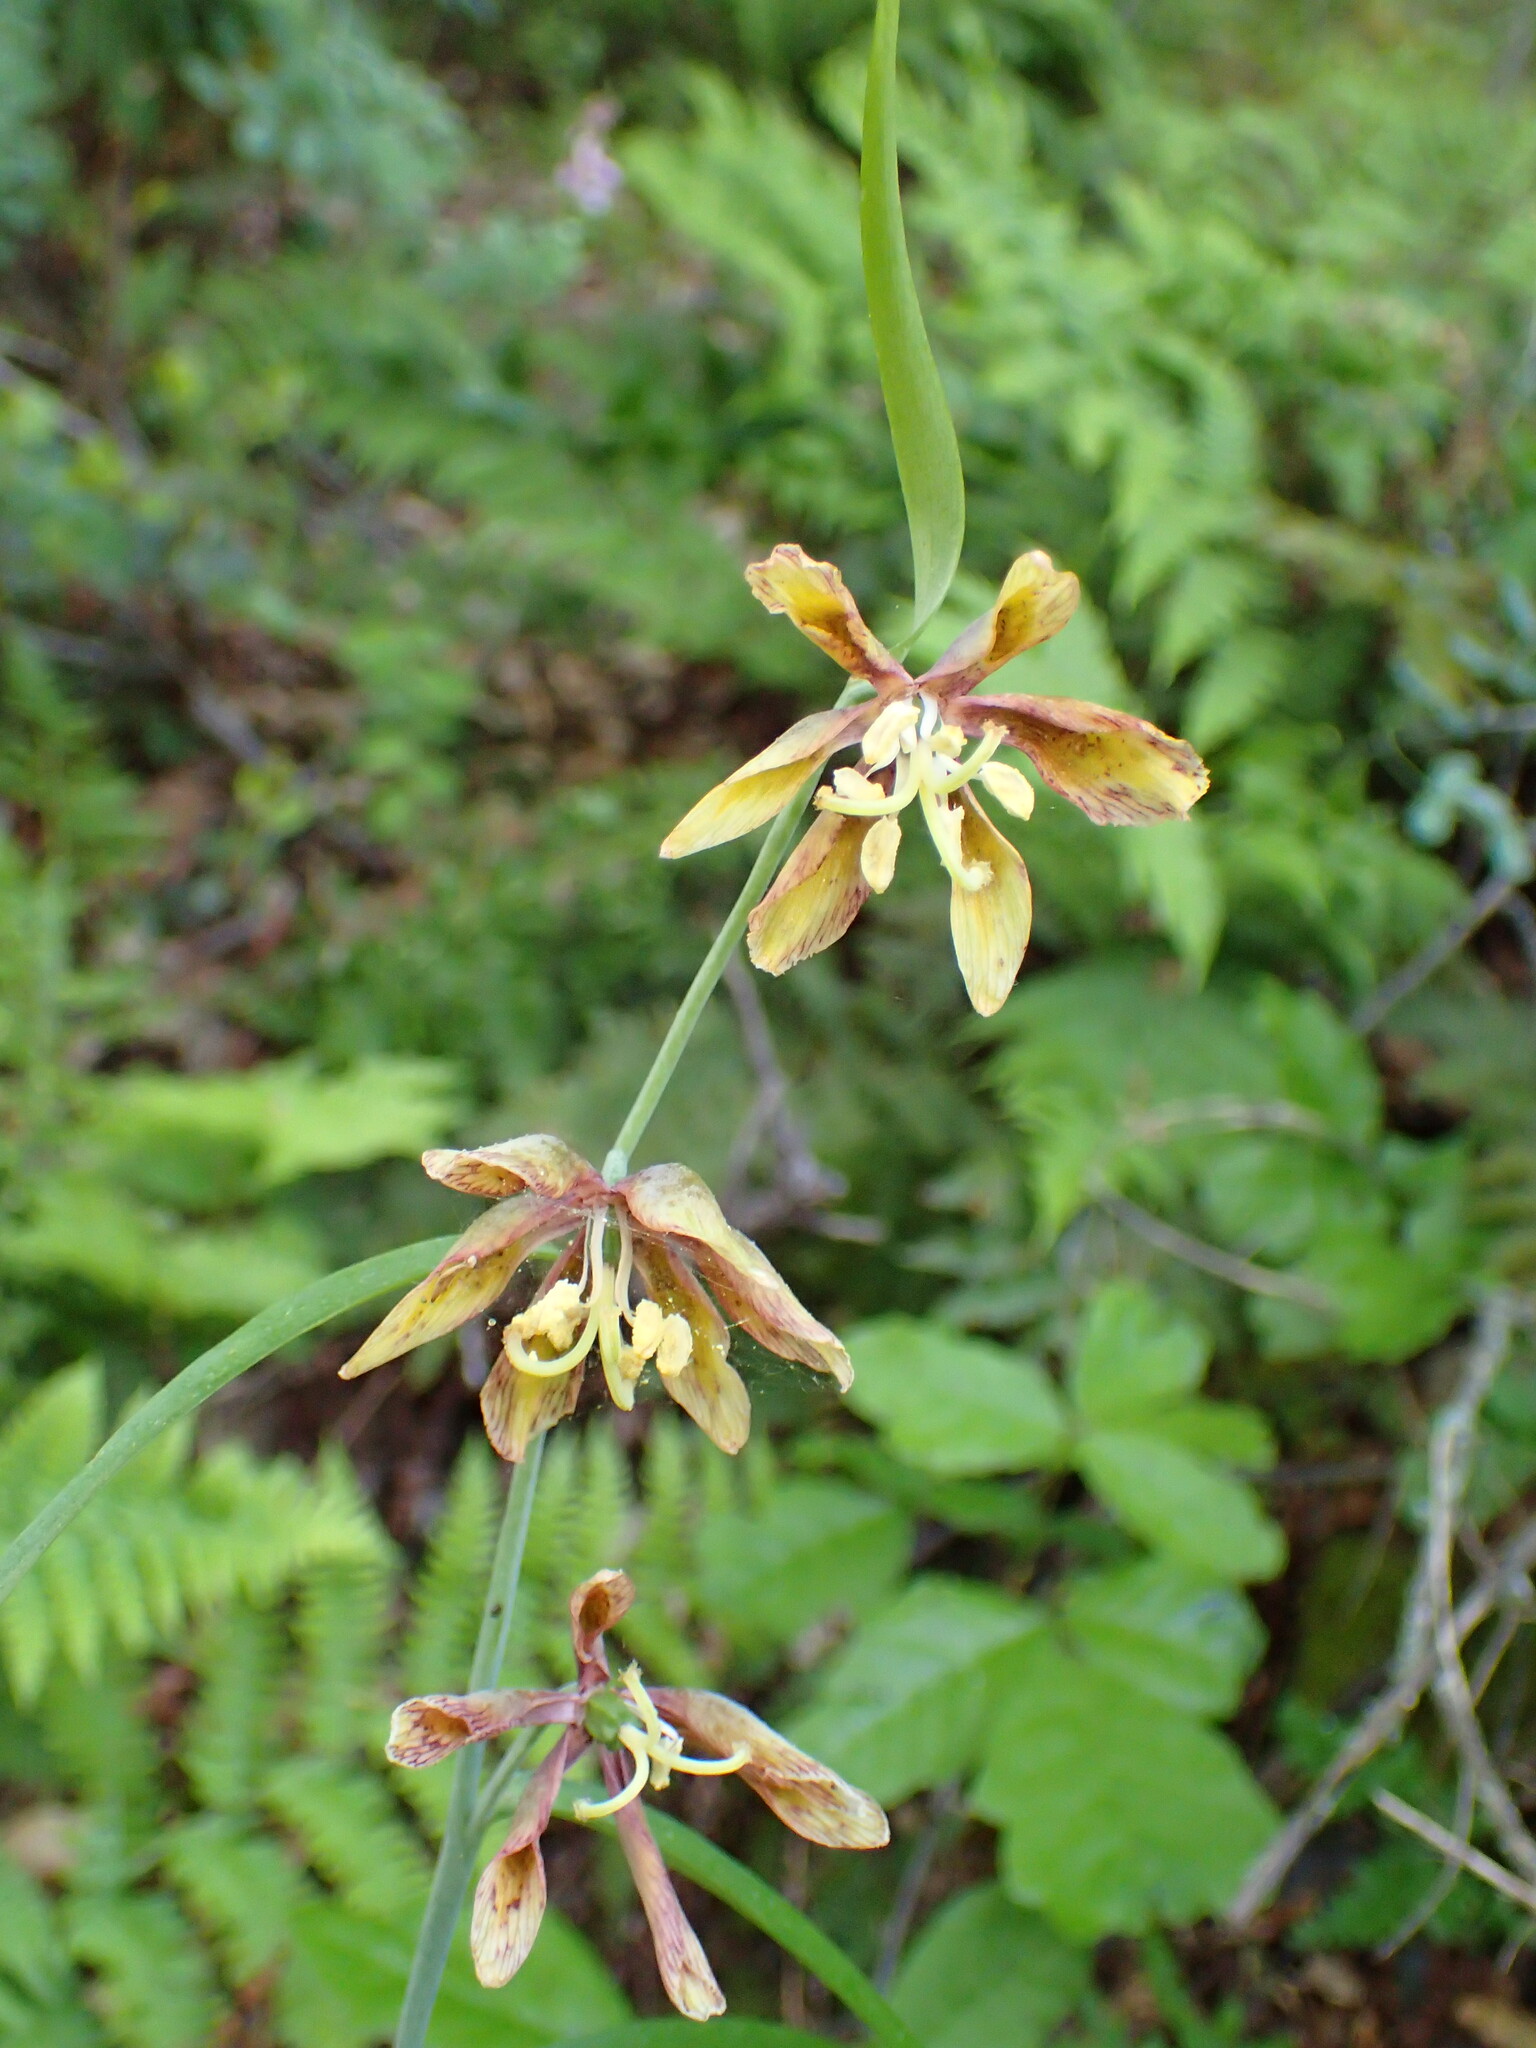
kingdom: Plantae
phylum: Tracheophyta
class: Liliopsida
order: Liliales
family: Liliaceae
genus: Fritillaria
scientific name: Fritillaria ojaiensis
